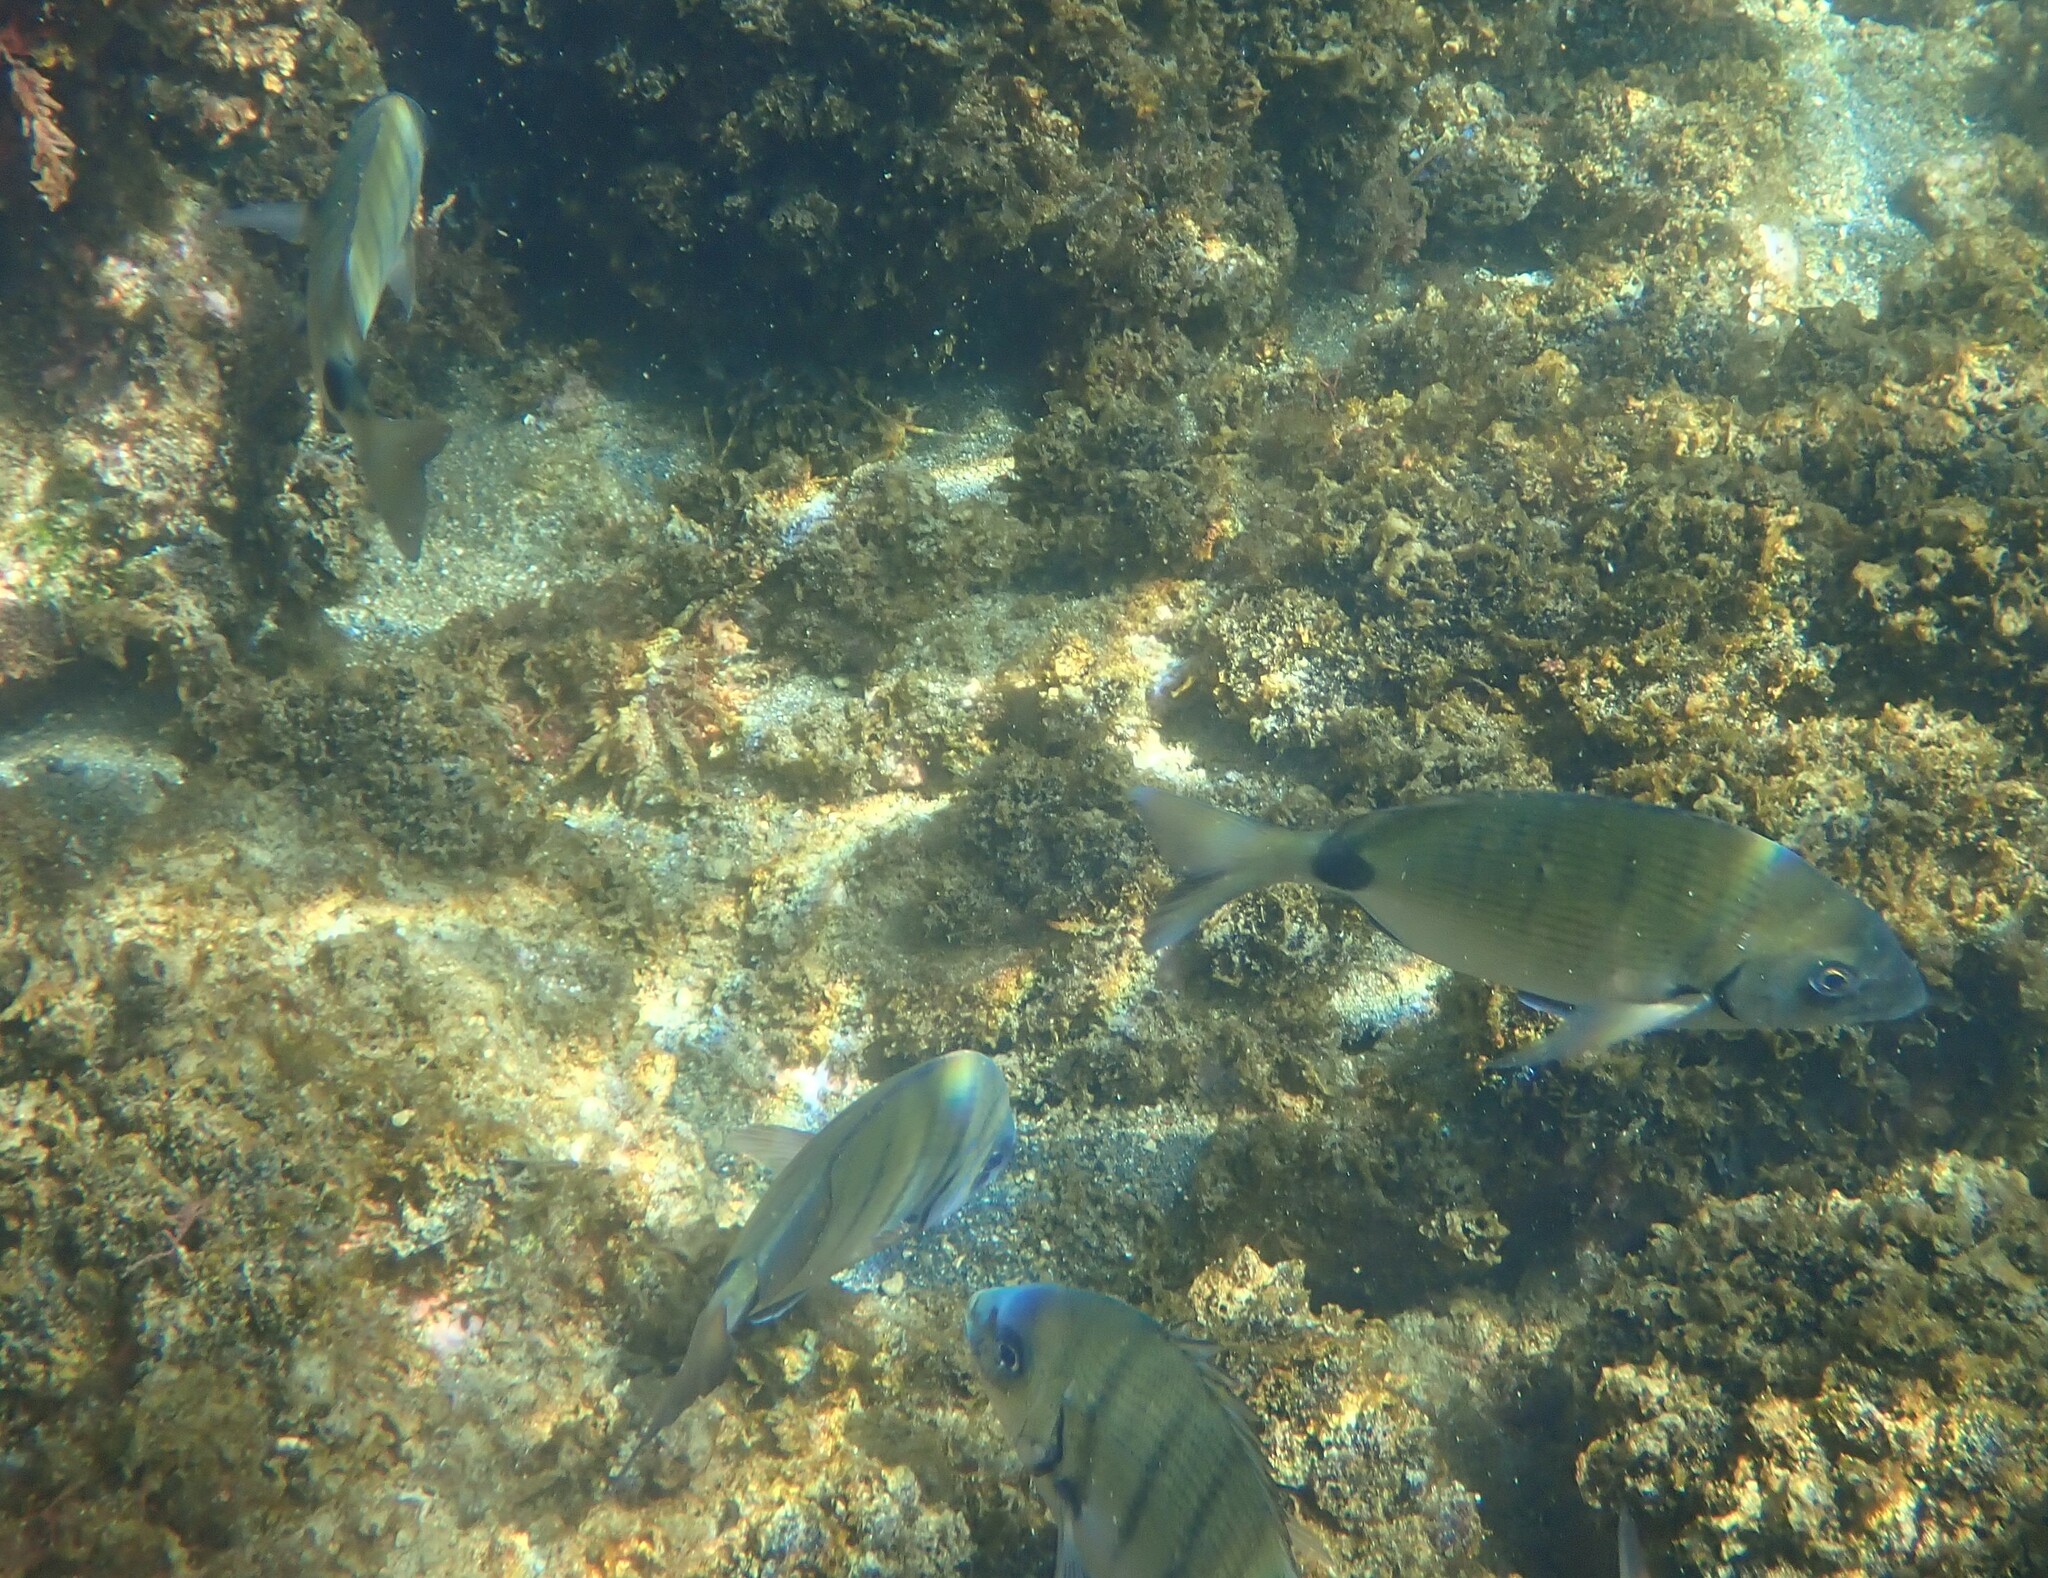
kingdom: Animalia
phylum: Chordata
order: Perciformes
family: Sparidae
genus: Diplodus
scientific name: Diplodus cadenati
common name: Moroccan white seabream
